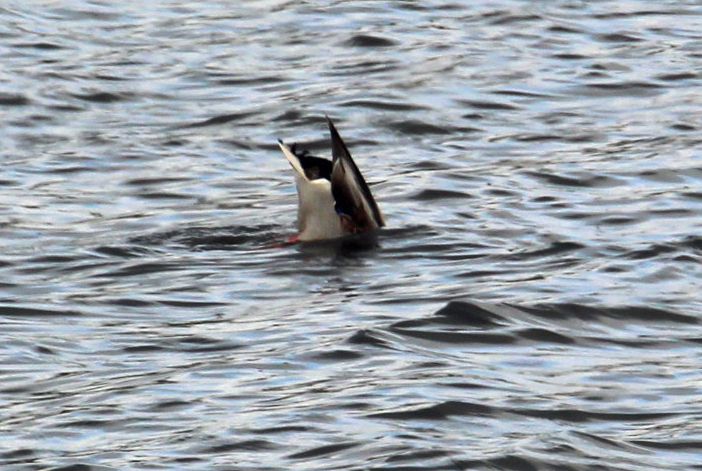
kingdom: Animalia
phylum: Chordata
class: Aves
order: Anseriformes
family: Anatidae
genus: Anas
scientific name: Anas platyrhynchos
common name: Mallard
